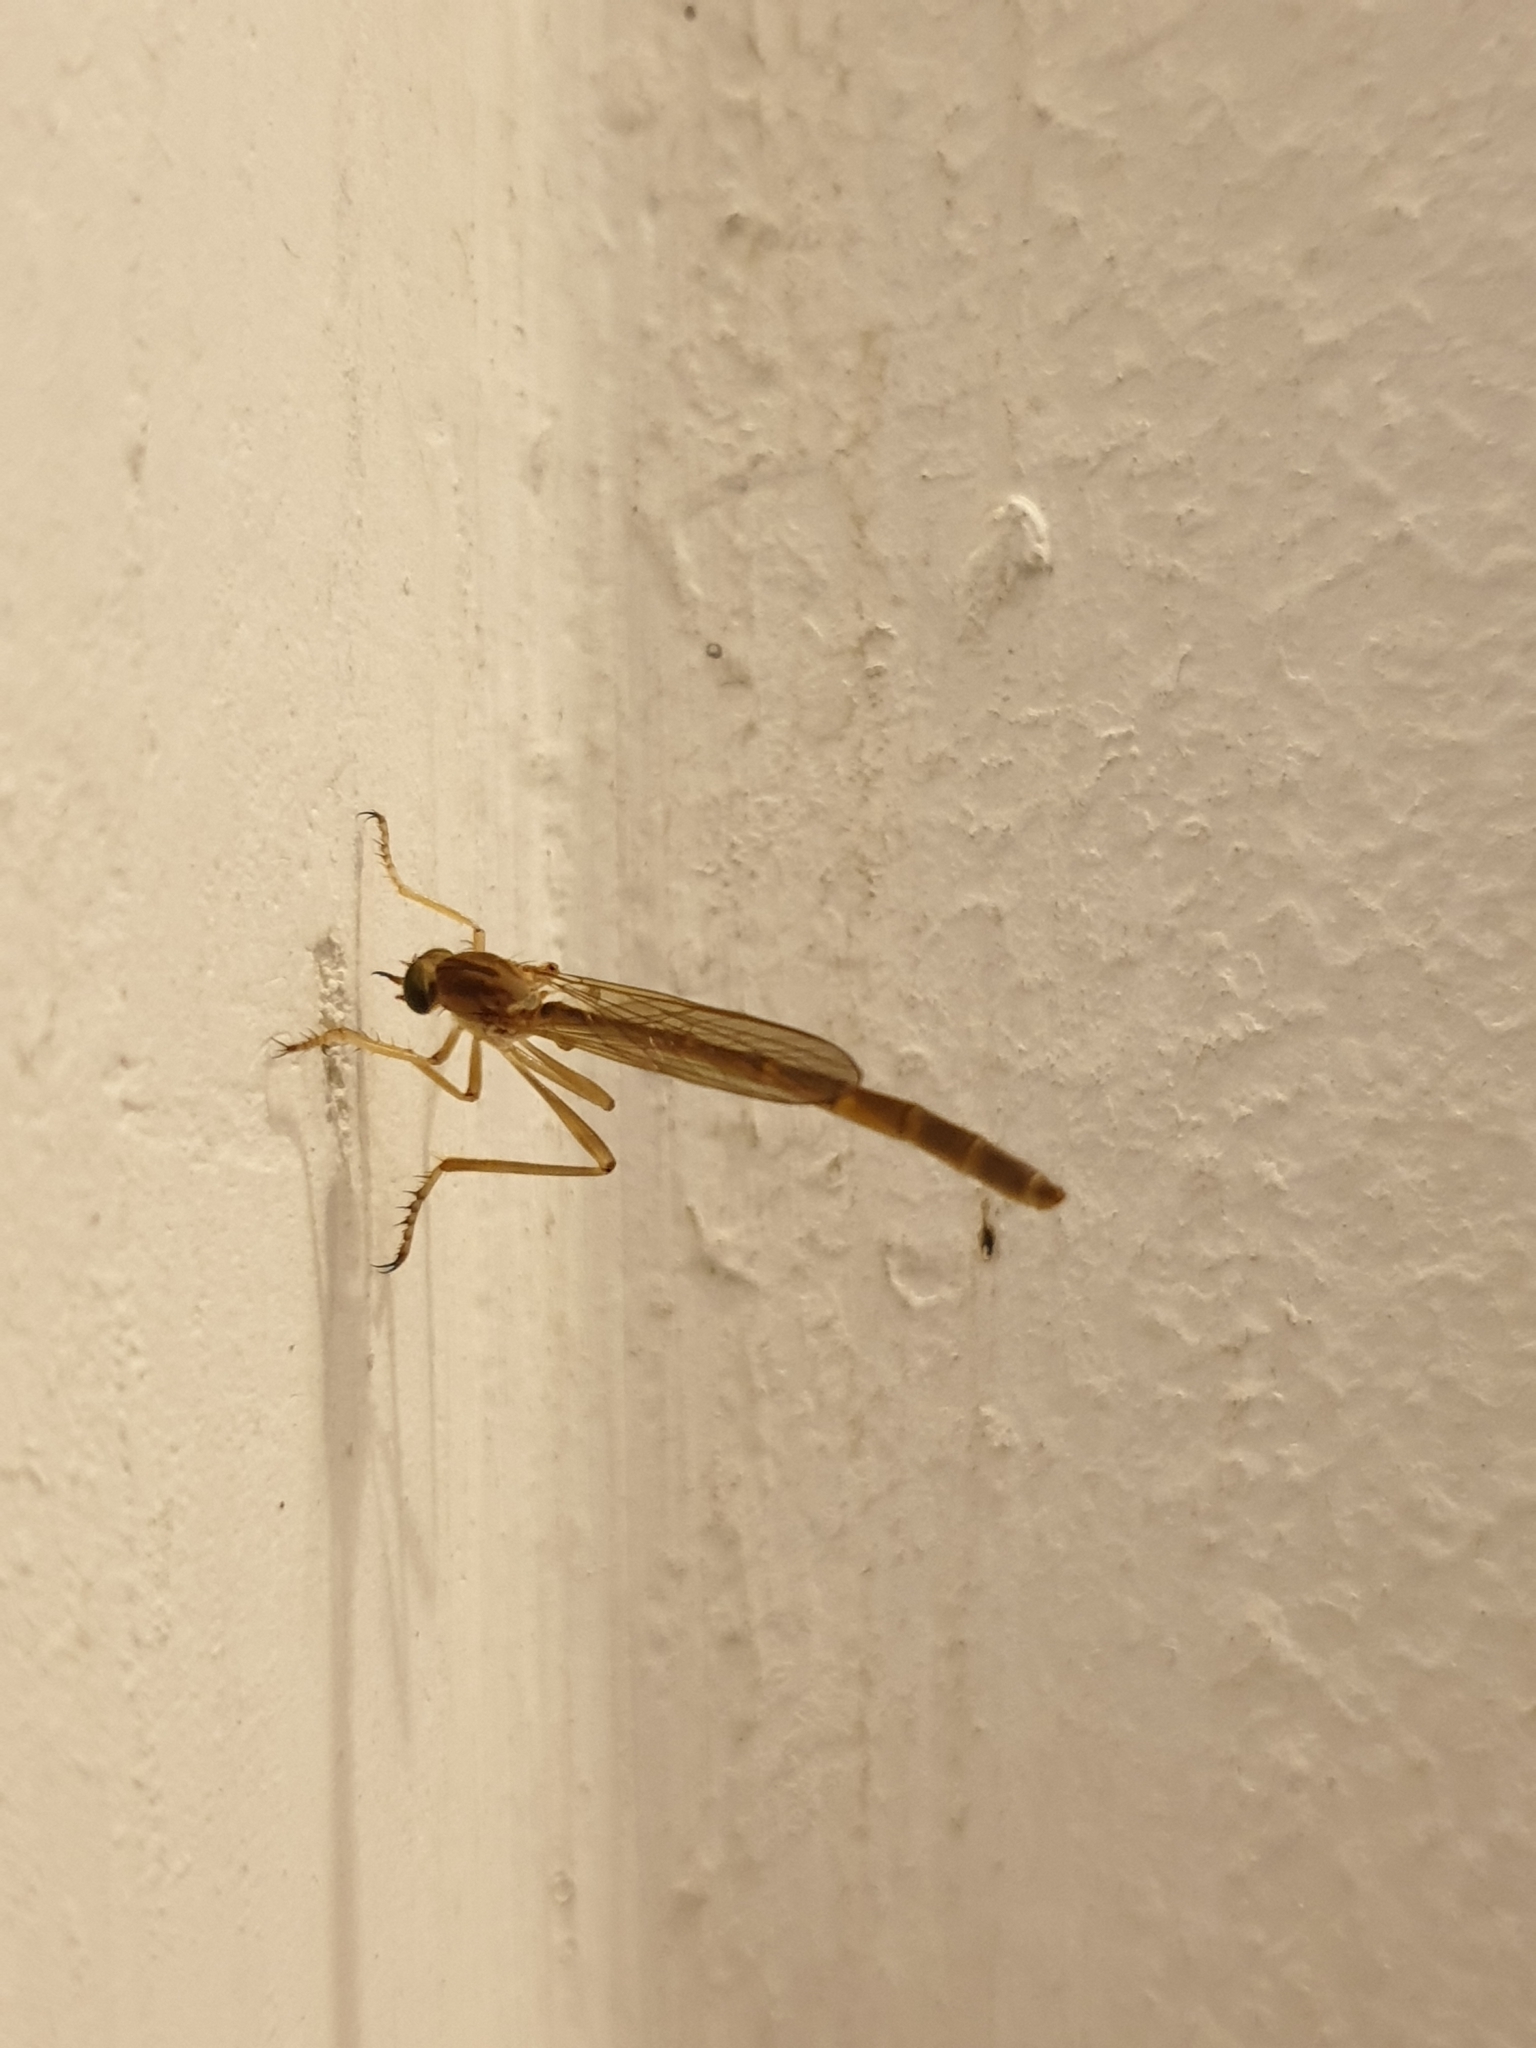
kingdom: Animalia
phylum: Arthropoda
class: Insecta
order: Diptera
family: Asilidae
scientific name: Asilidae
